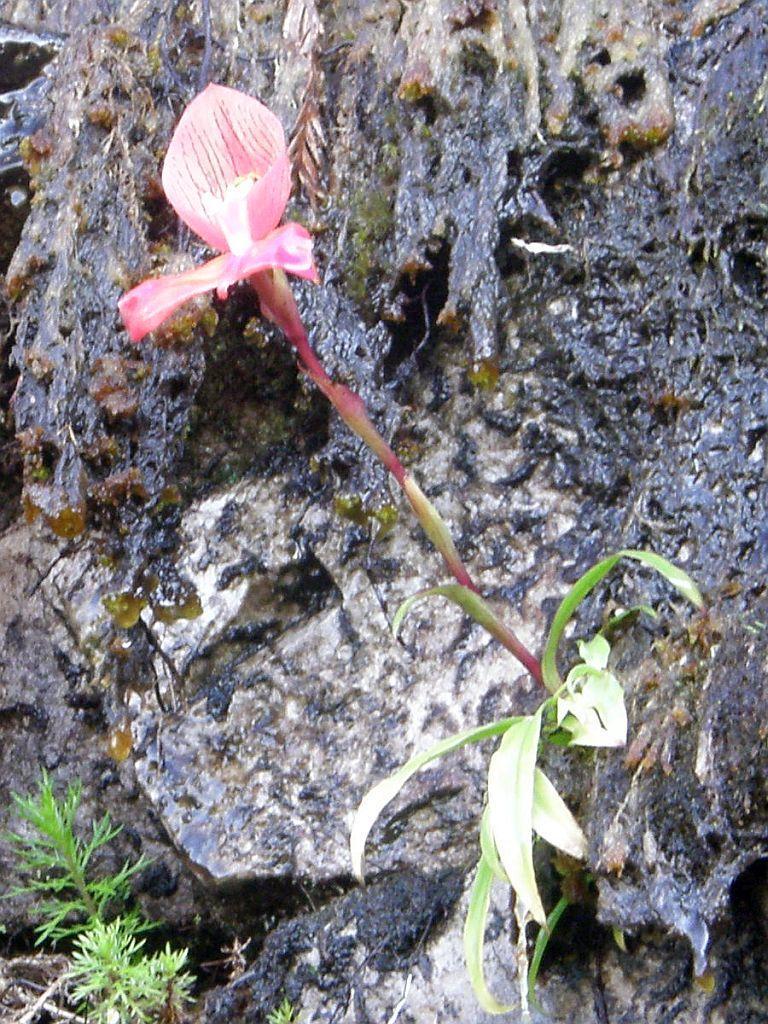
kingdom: Plantae
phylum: Tracheophyta
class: Liliopsida
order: Asparagales
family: Orchidaceae
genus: Disa
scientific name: Disa uniflora
